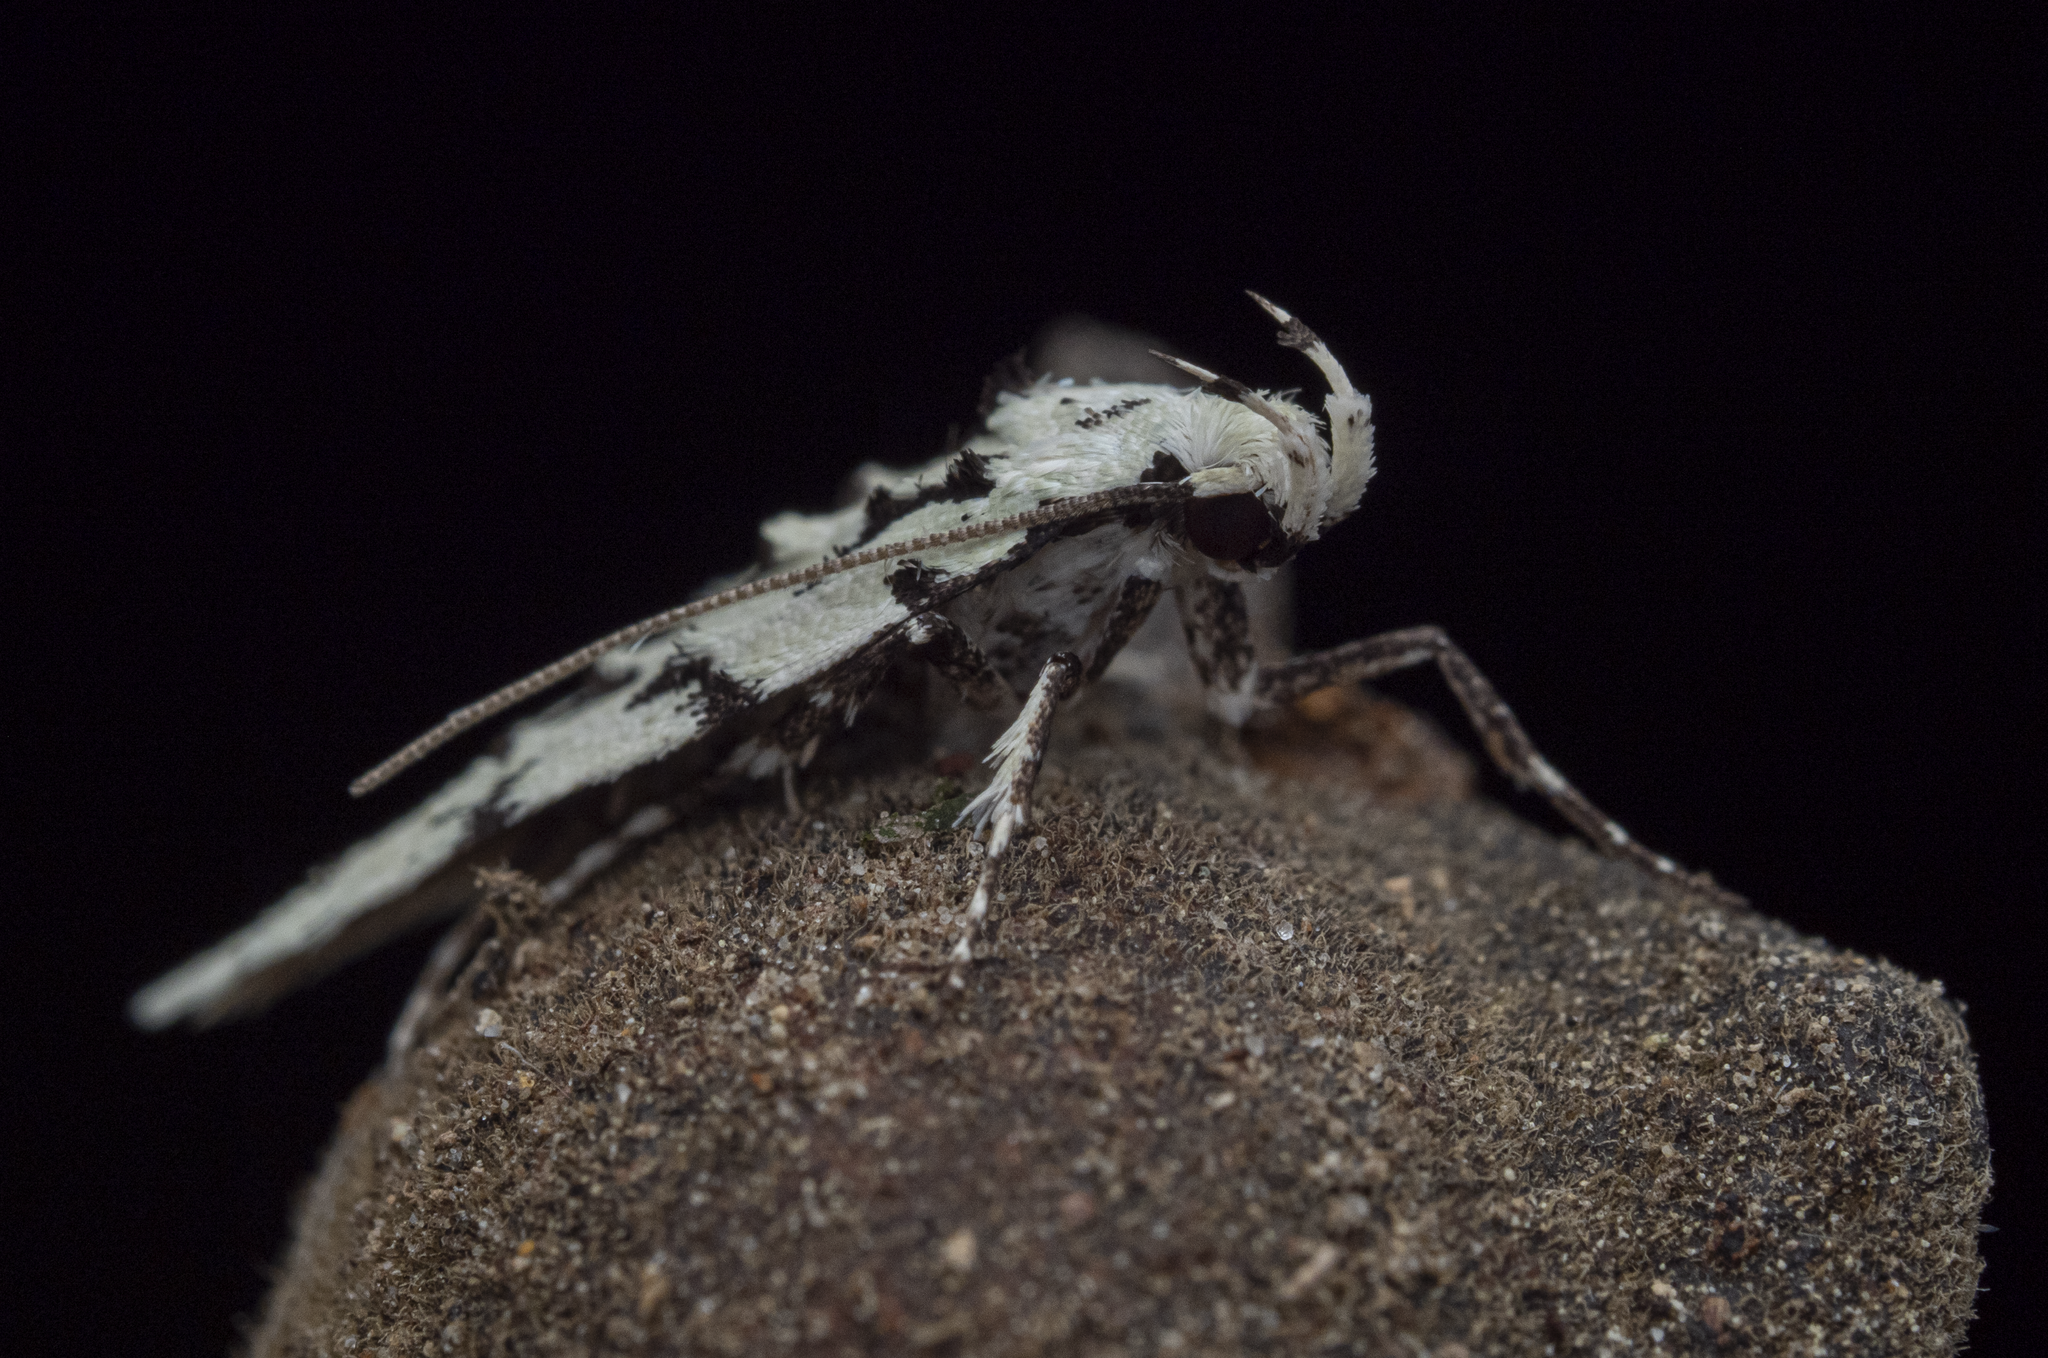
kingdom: Animalia
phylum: Arthropoda
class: Insecta
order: Lepidoptera
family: Oecophoridae
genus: Izatha
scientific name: Izatha huttoni
